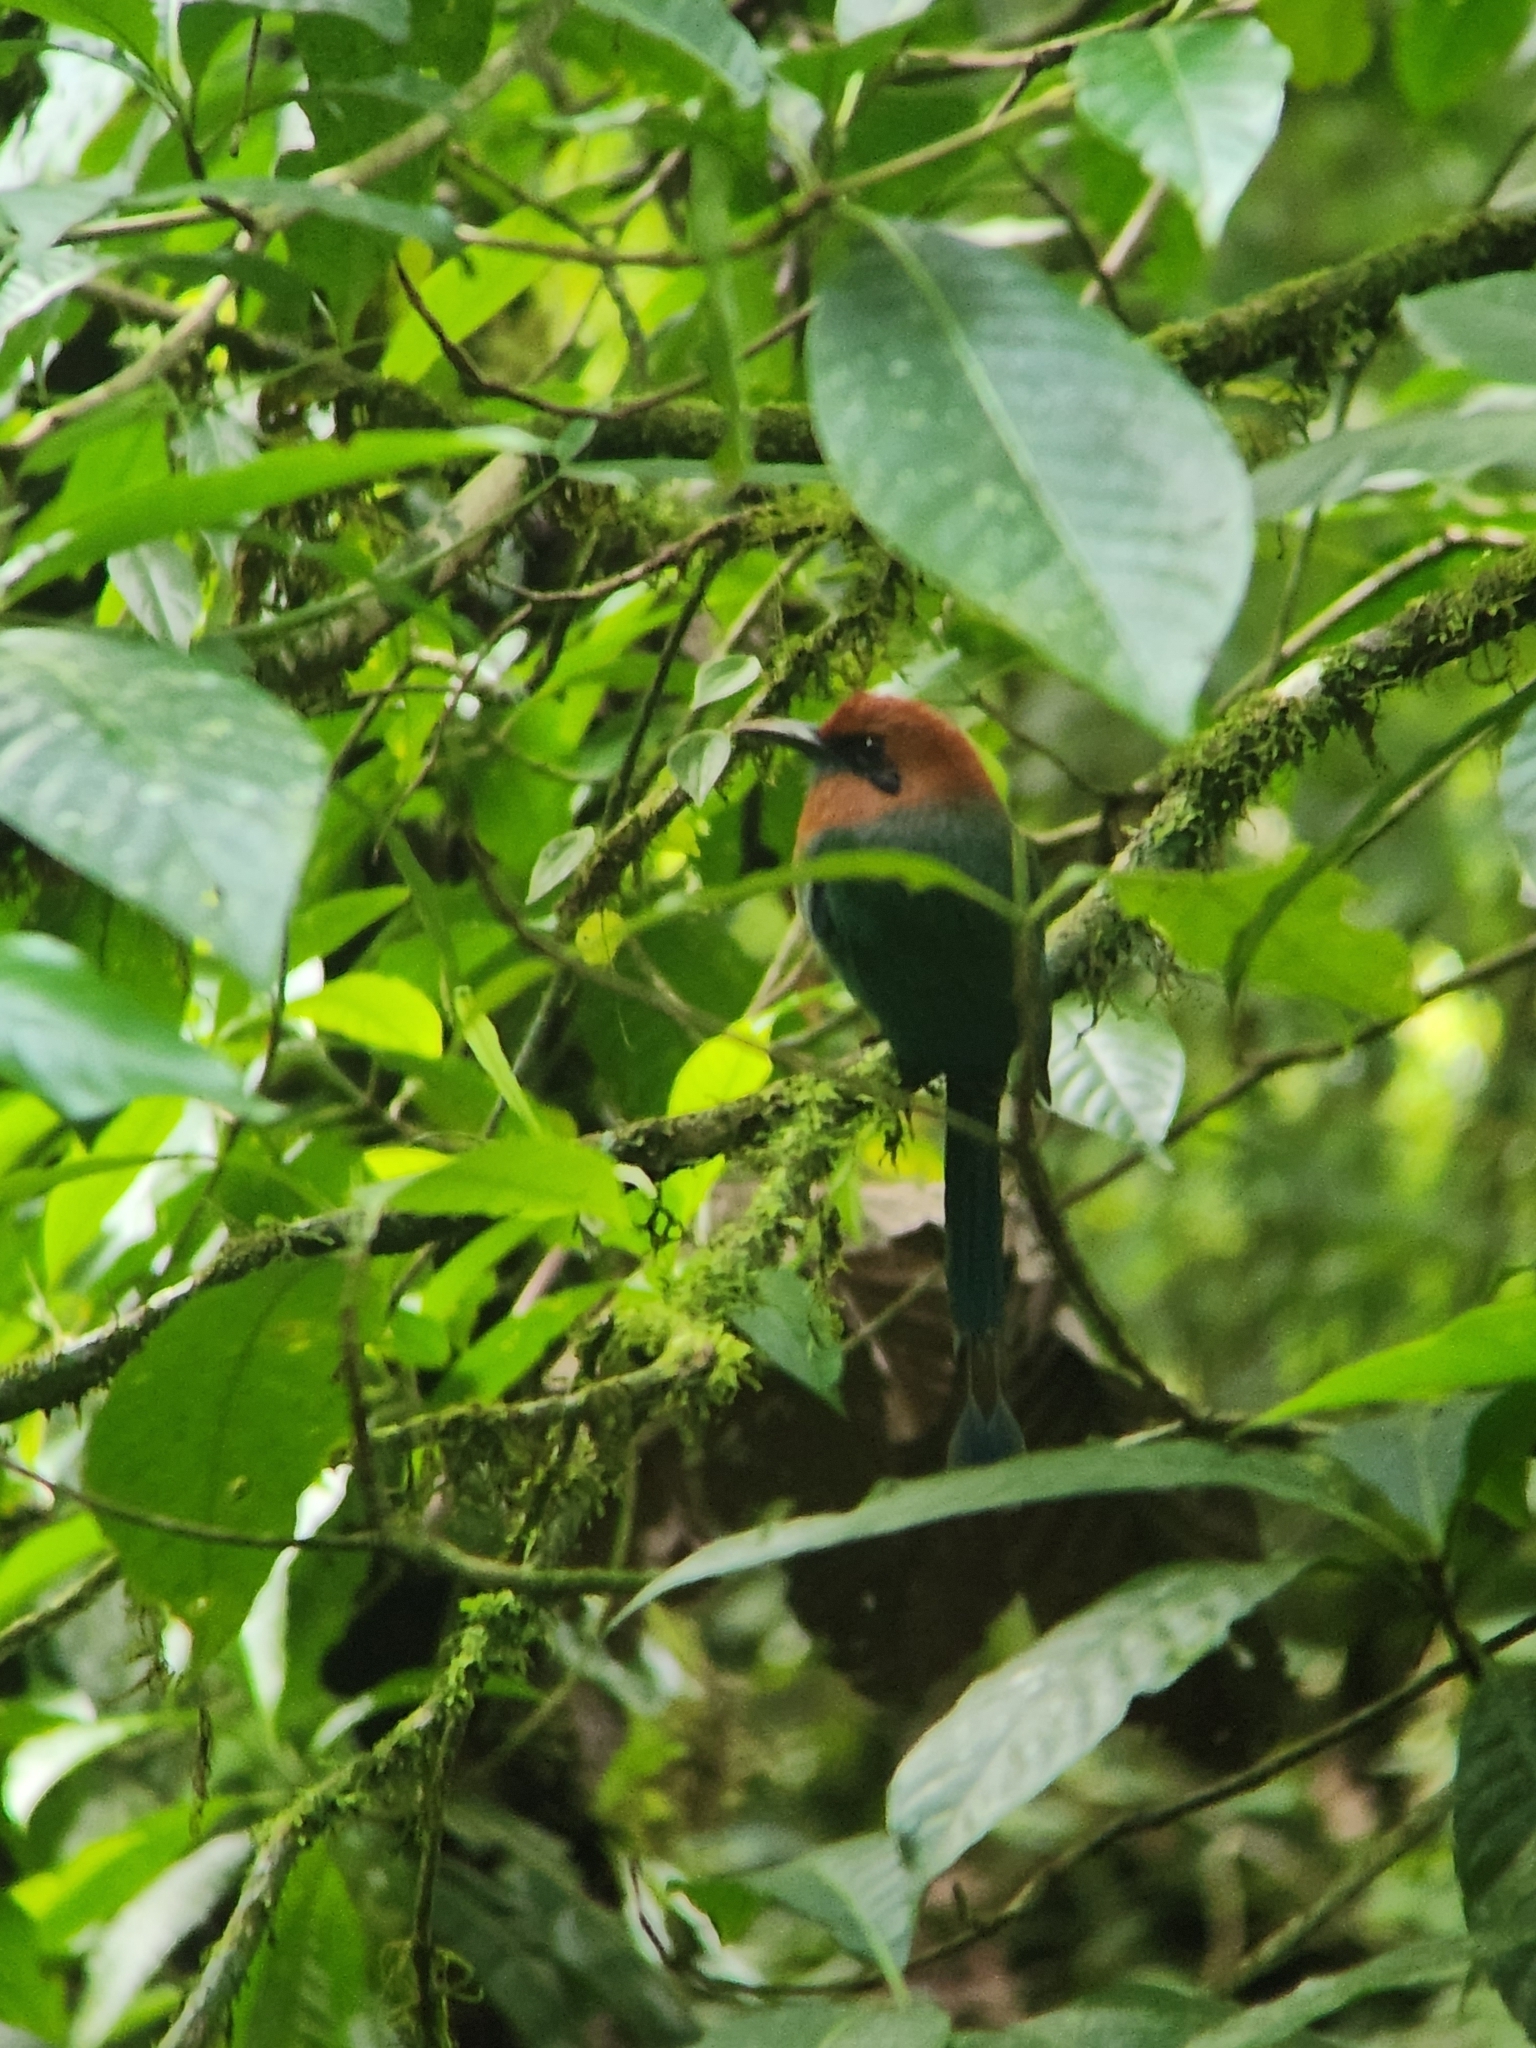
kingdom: Animalia
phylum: Chordata
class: Aves
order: Coraciiformes
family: Momotidae
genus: Electron
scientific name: Electron platyrhynchum
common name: Broad-billed motmot
